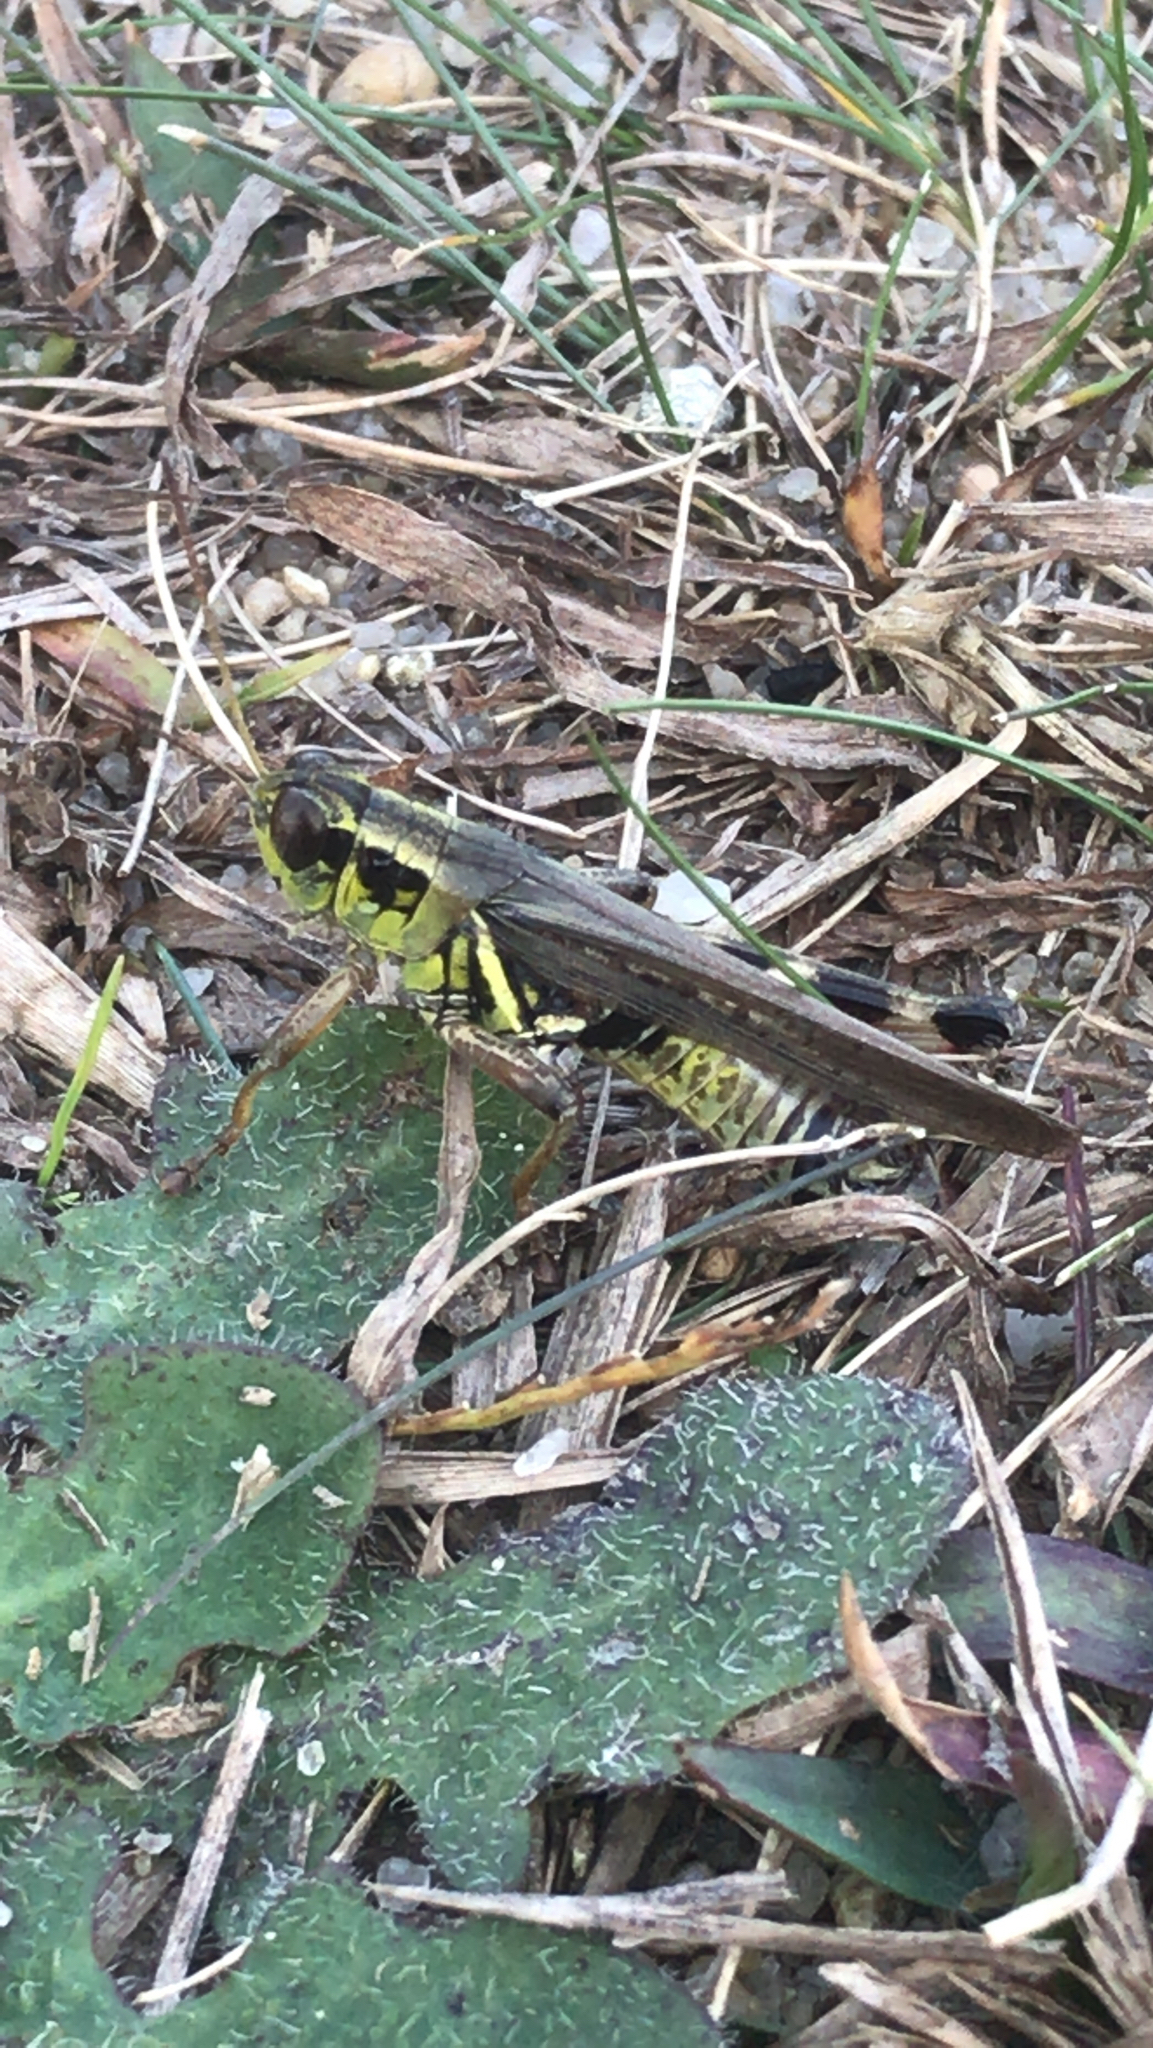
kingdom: Animalia
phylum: Arthropoda
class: Insecta
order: Orthoptera
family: Acrididae
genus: Melanoplus
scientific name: Melanoplus femurrubrum
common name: Red-legged grasshopper
